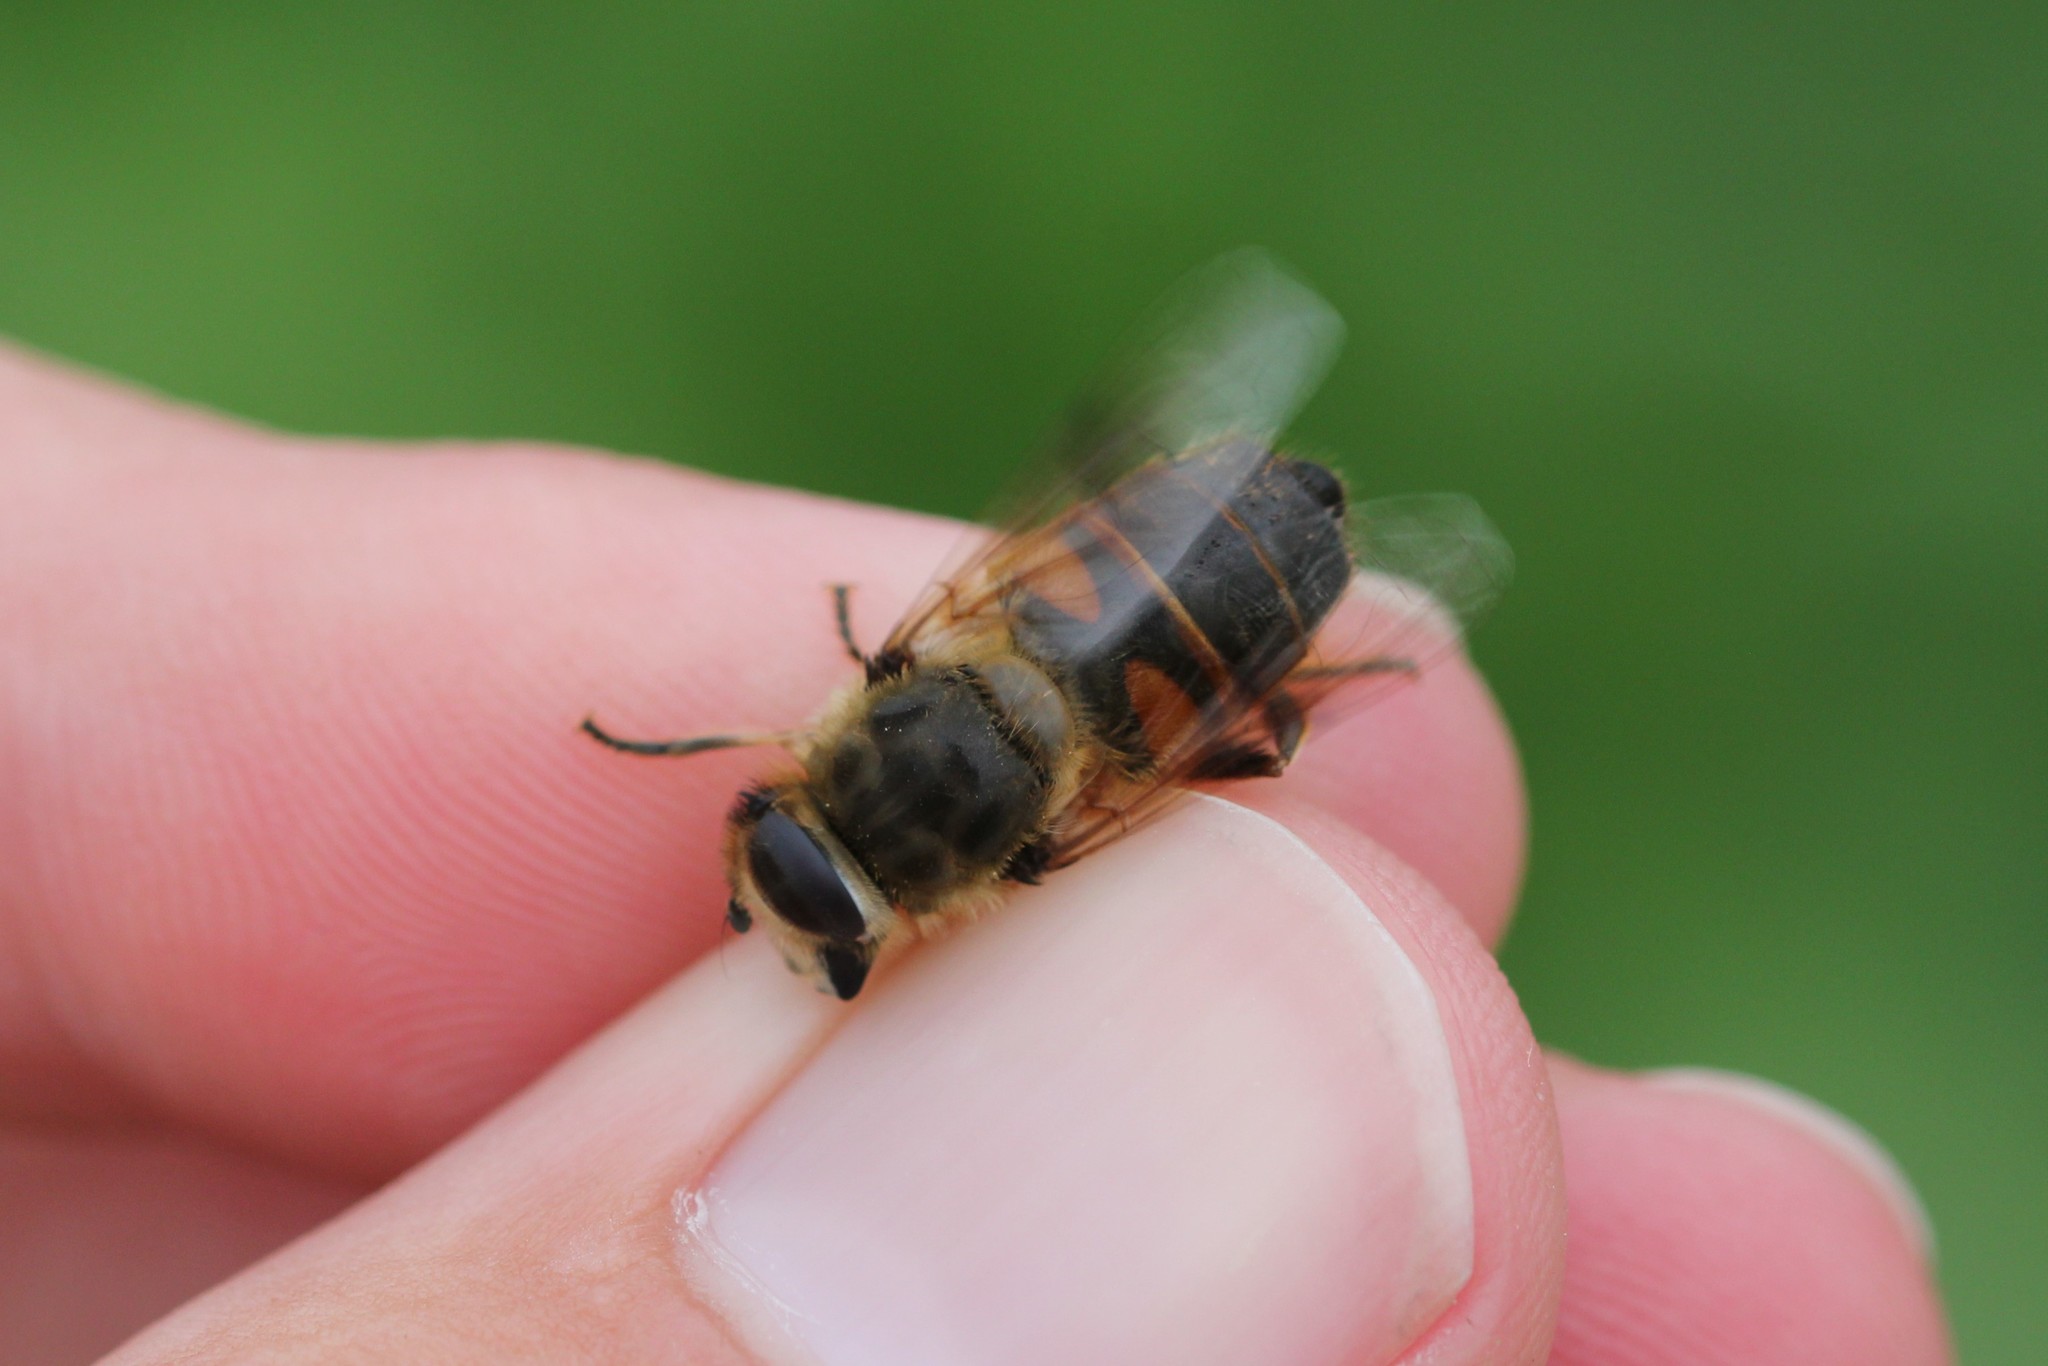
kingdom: Animalia
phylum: Arthropoda
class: Insecta
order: Diptera
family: Syrphidae
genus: Eristalis
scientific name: Eristalis tenax
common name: Drone fly
